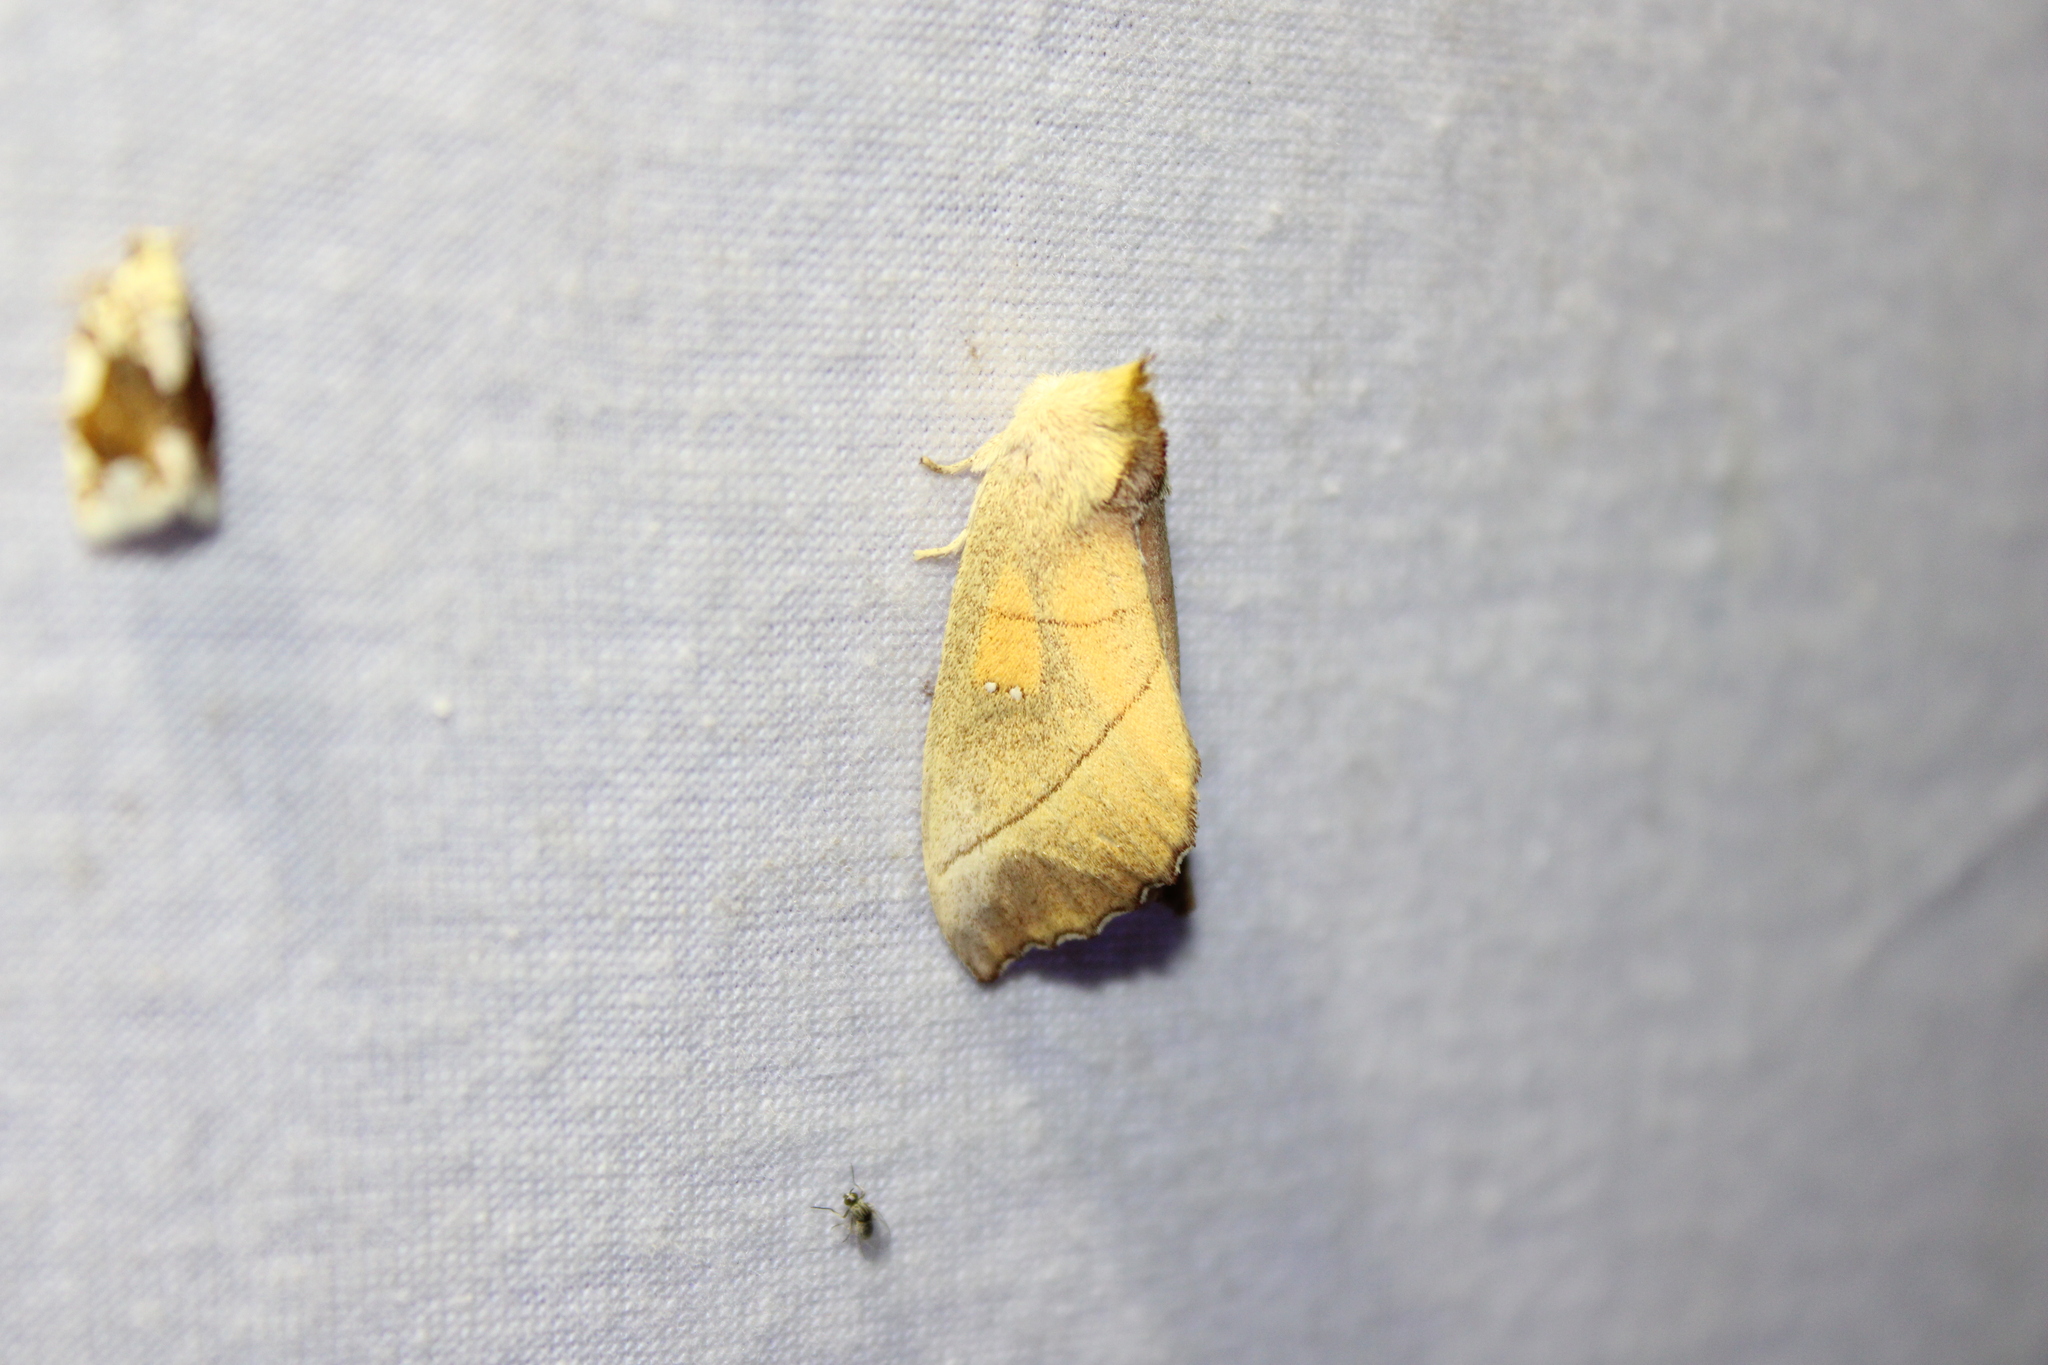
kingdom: Animalia
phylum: Arthropoda
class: Insecta
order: Lepidoptera
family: Notodontidae
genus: Nadata
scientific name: Nadata gibbosa
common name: White-dotted prominent
